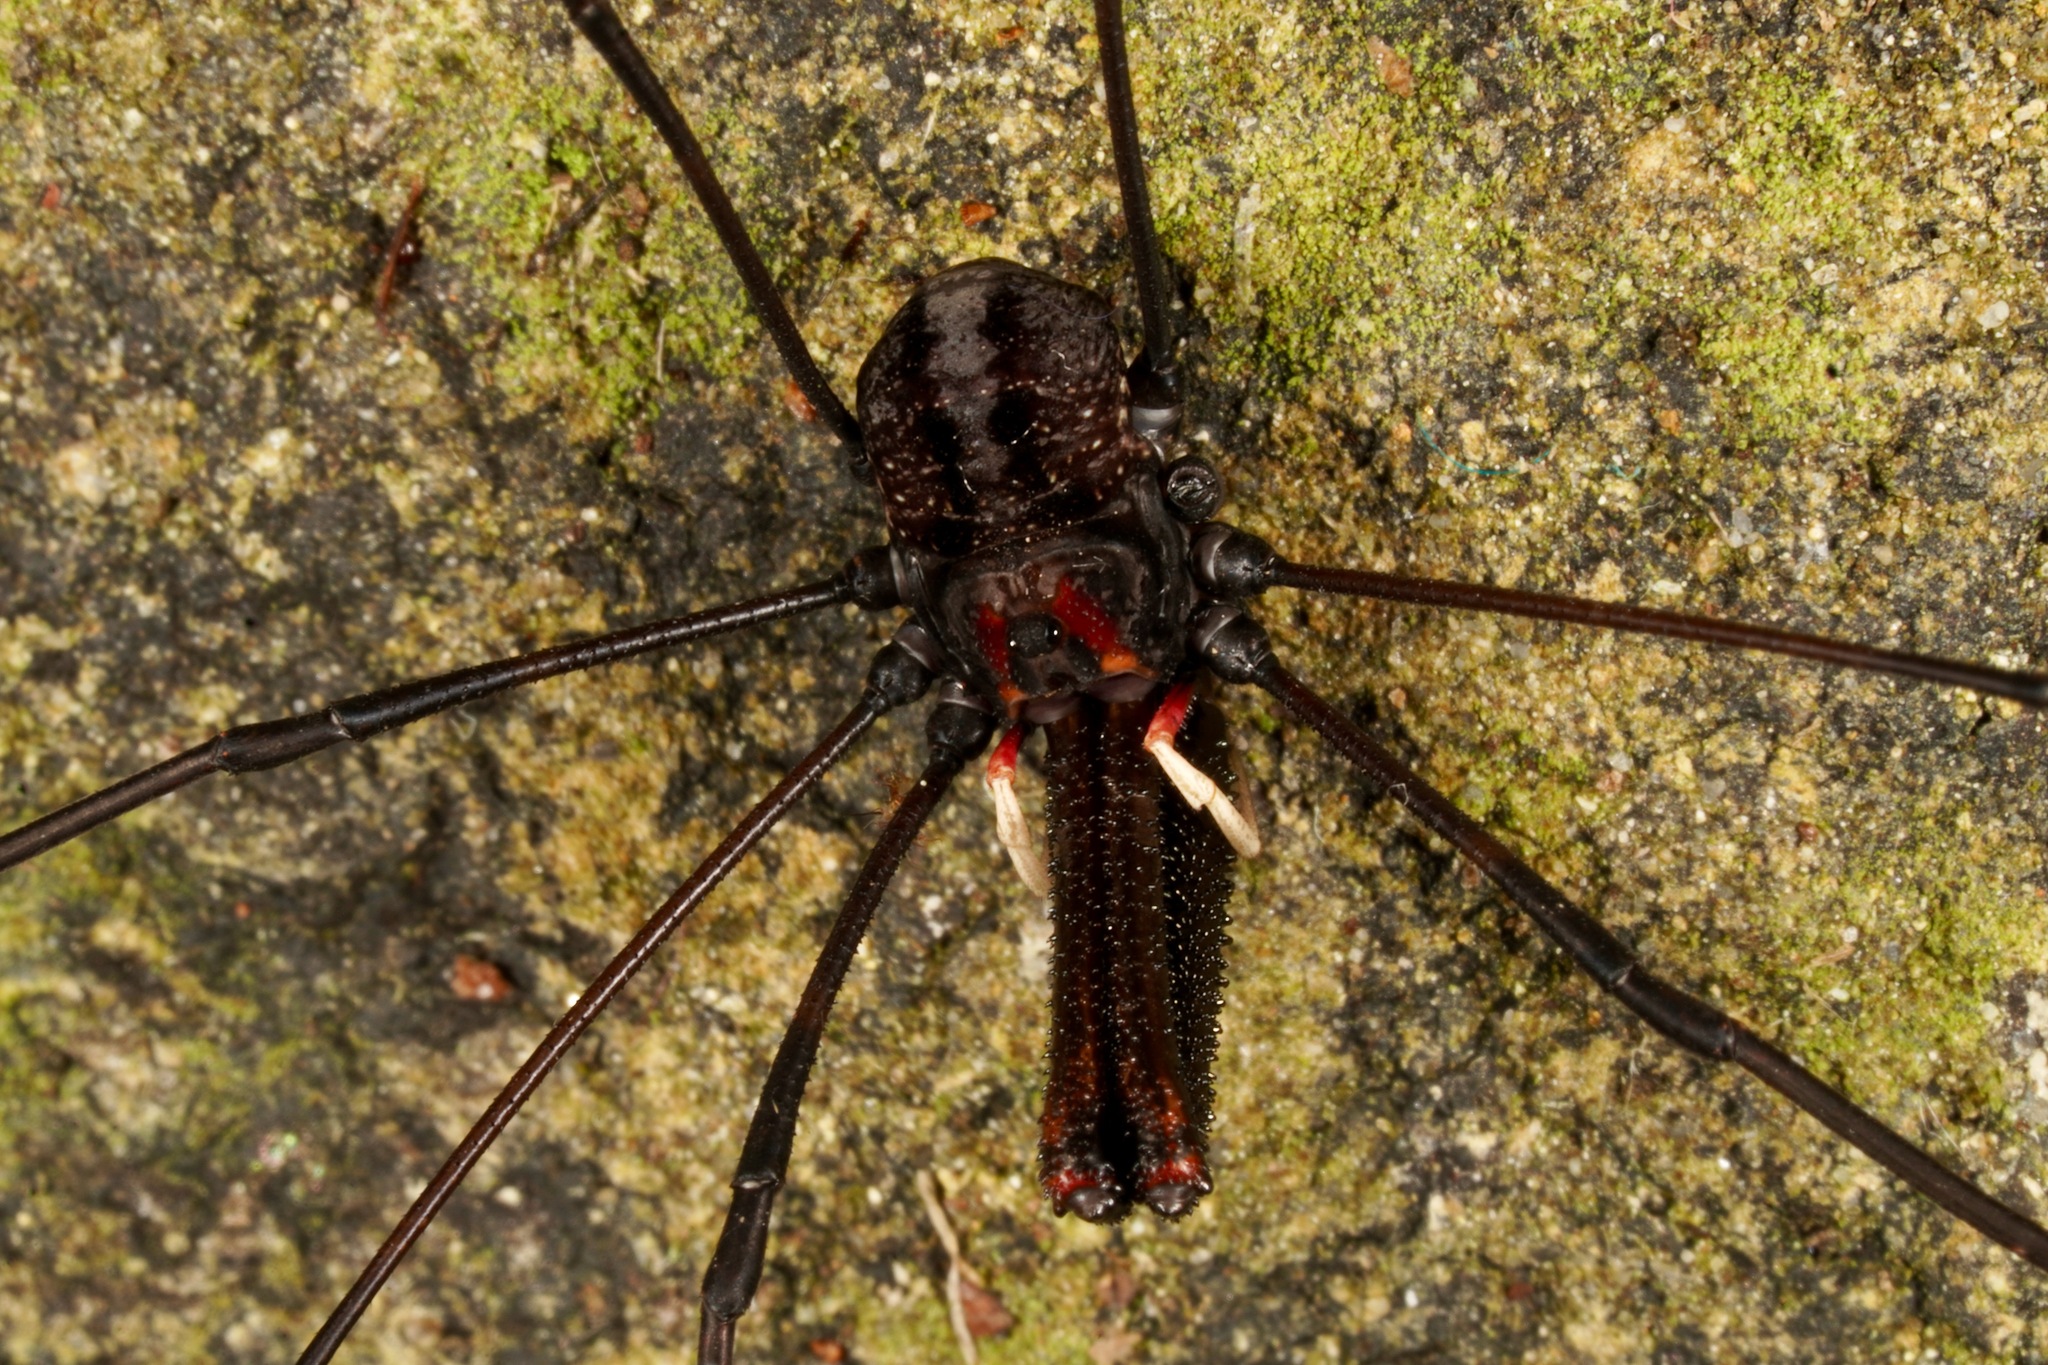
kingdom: Animalia
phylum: Arthropoda
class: Arachnida
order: Opiliones
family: Neopilionidae
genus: Forsteropsalis
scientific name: Forsteropsalis inconstans
